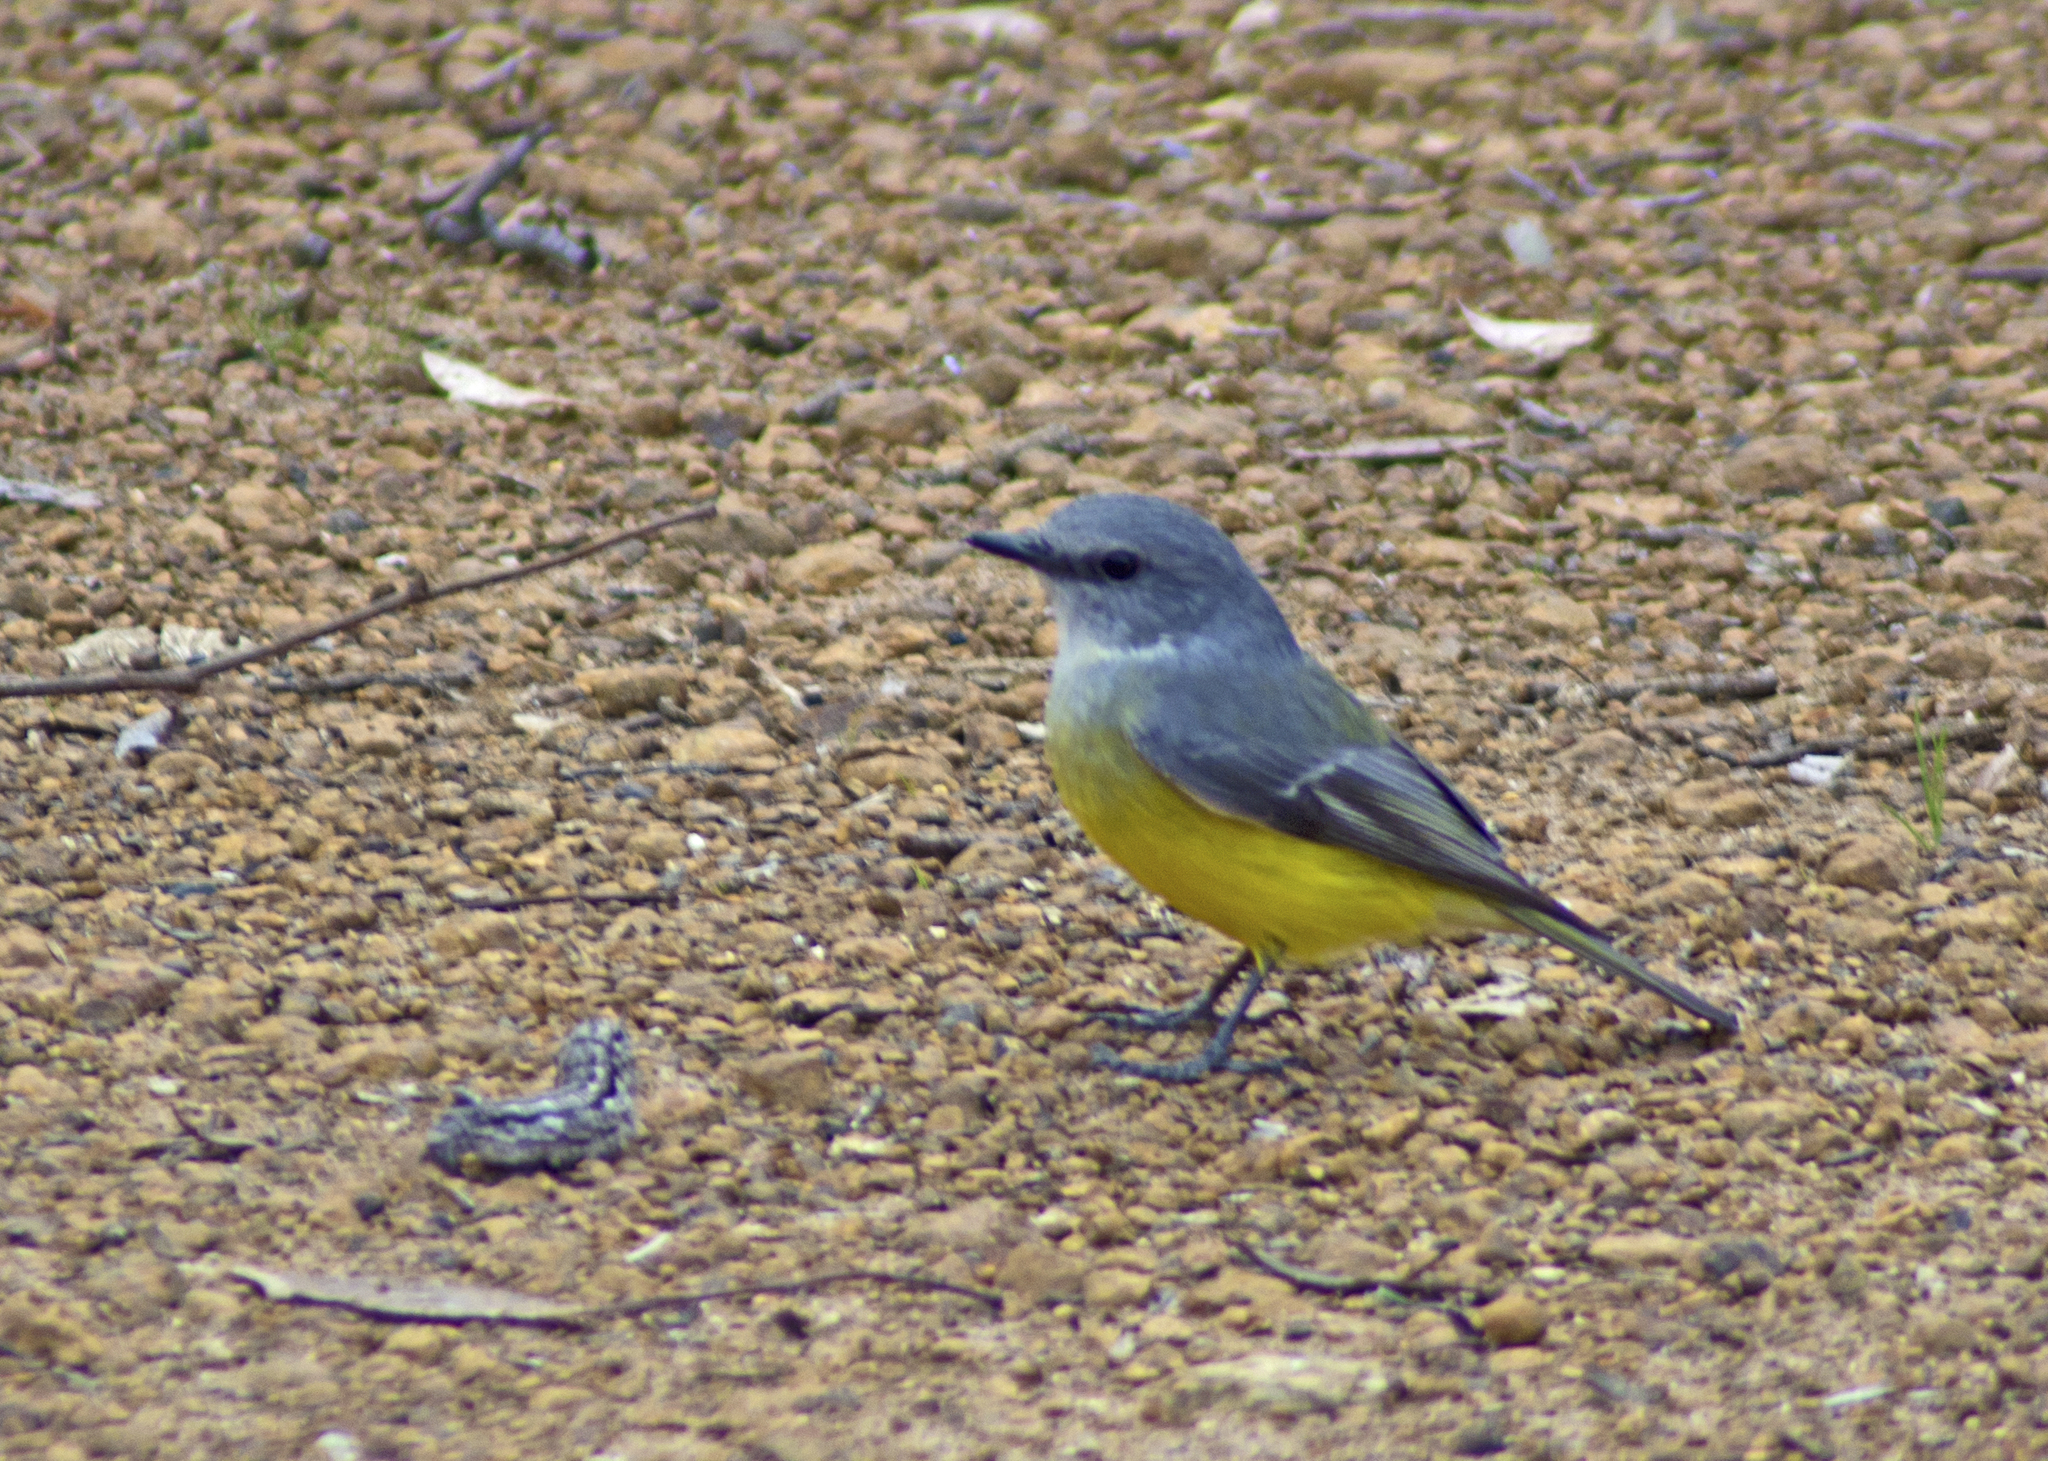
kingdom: Animalia
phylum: Chordata
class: Aves
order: Passeriformes
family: Petroicidae
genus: Eopsaltria
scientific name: Eopsaltria griseogularis
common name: Western yellow robin
